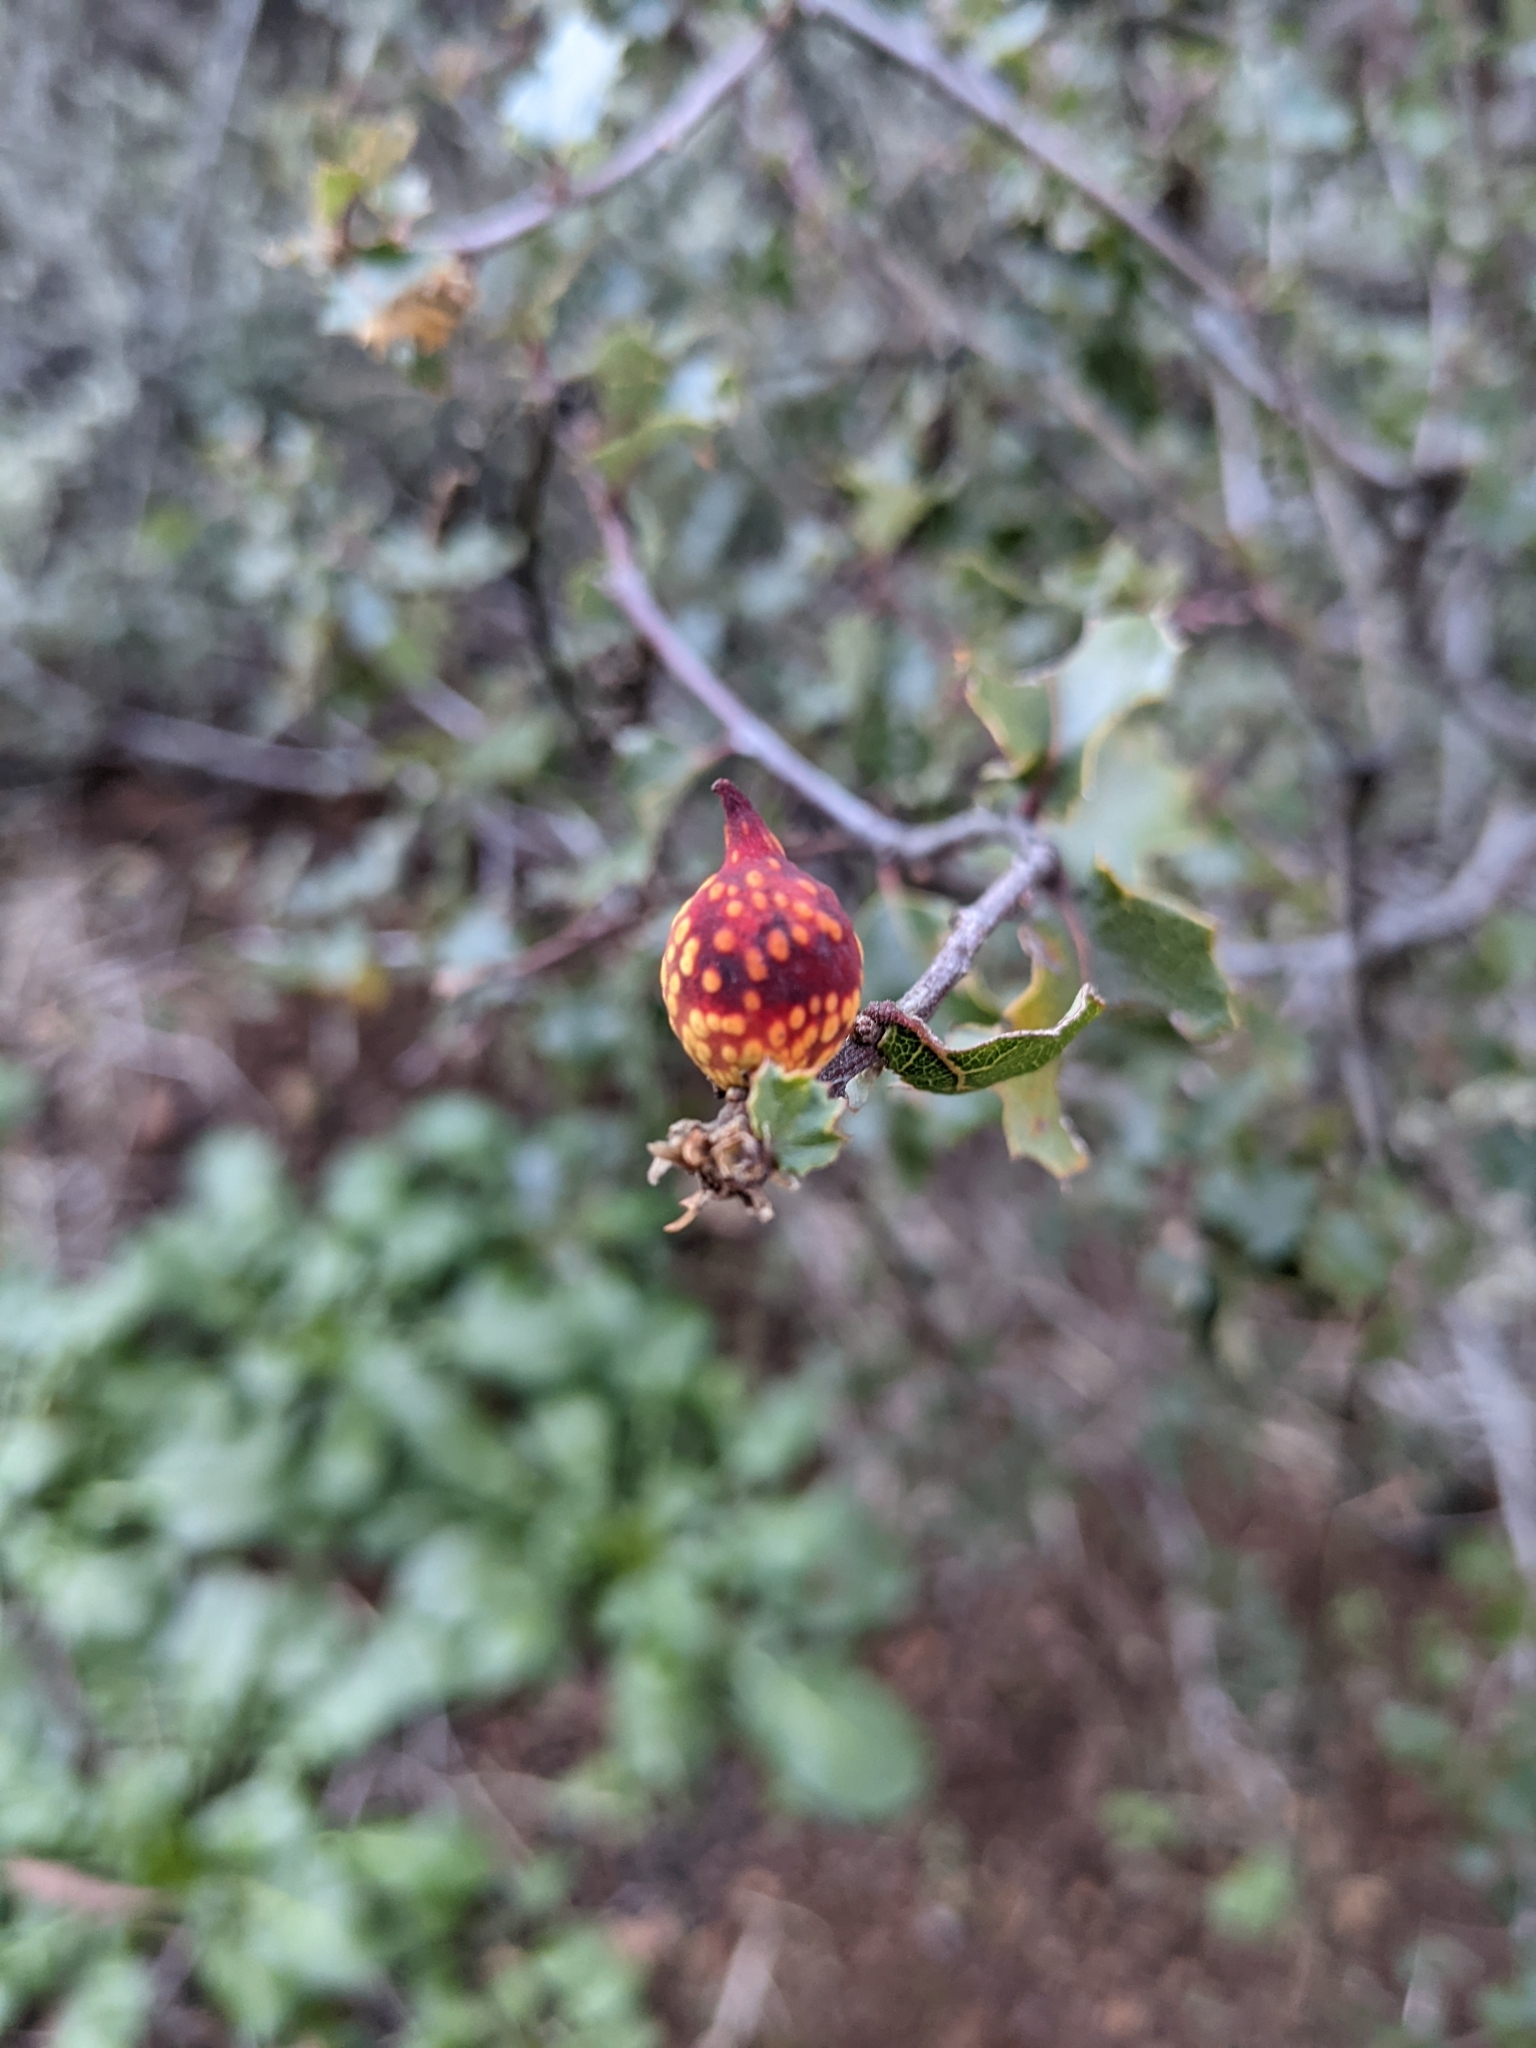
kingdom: Animalia
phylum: Arthropoda
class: Insecta
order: Hymenoptera
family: Cynipidae
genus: Burnettweldia
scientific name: Burnettweldia
